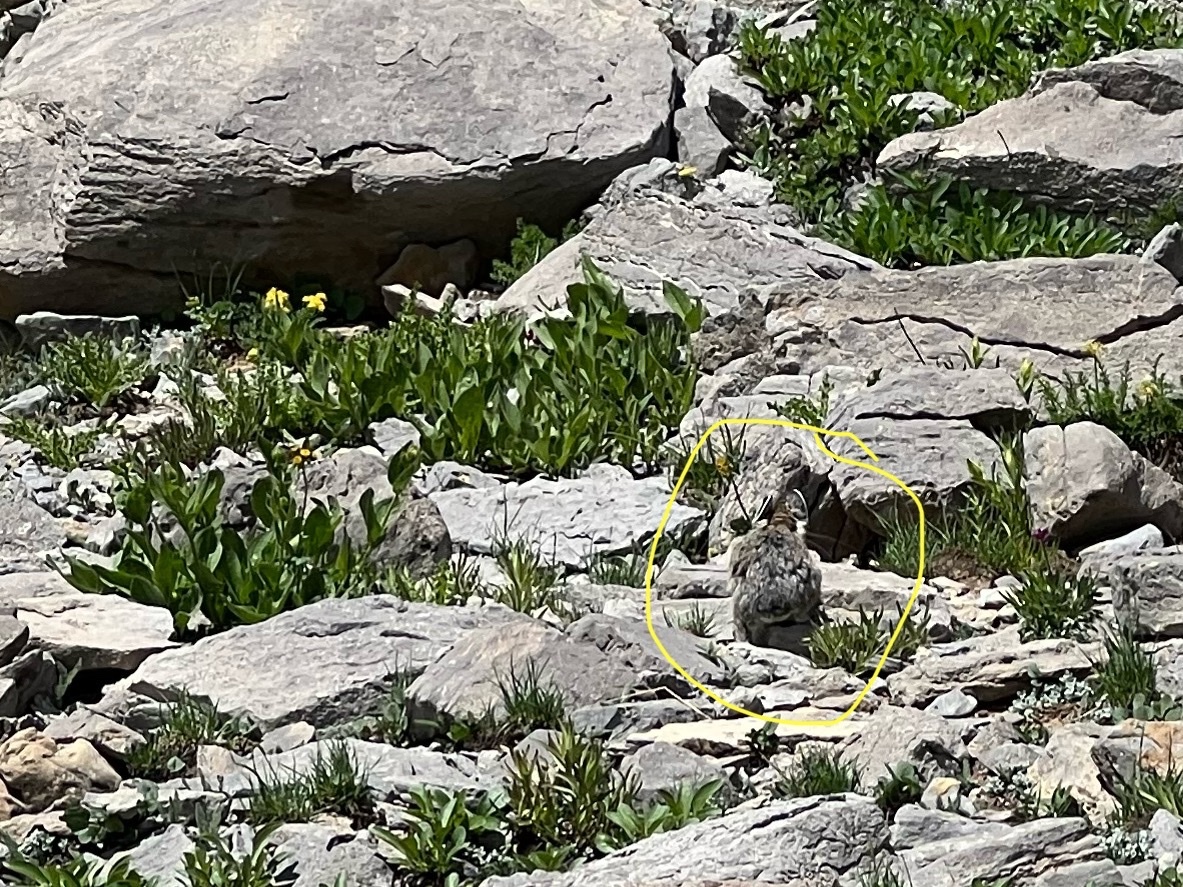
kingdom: Animalia
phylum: Chordata
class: Mammalia
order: Lagomorpha
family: Ochotonidae
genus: Ochotona
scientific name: Ochotona princeps
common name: American pika
